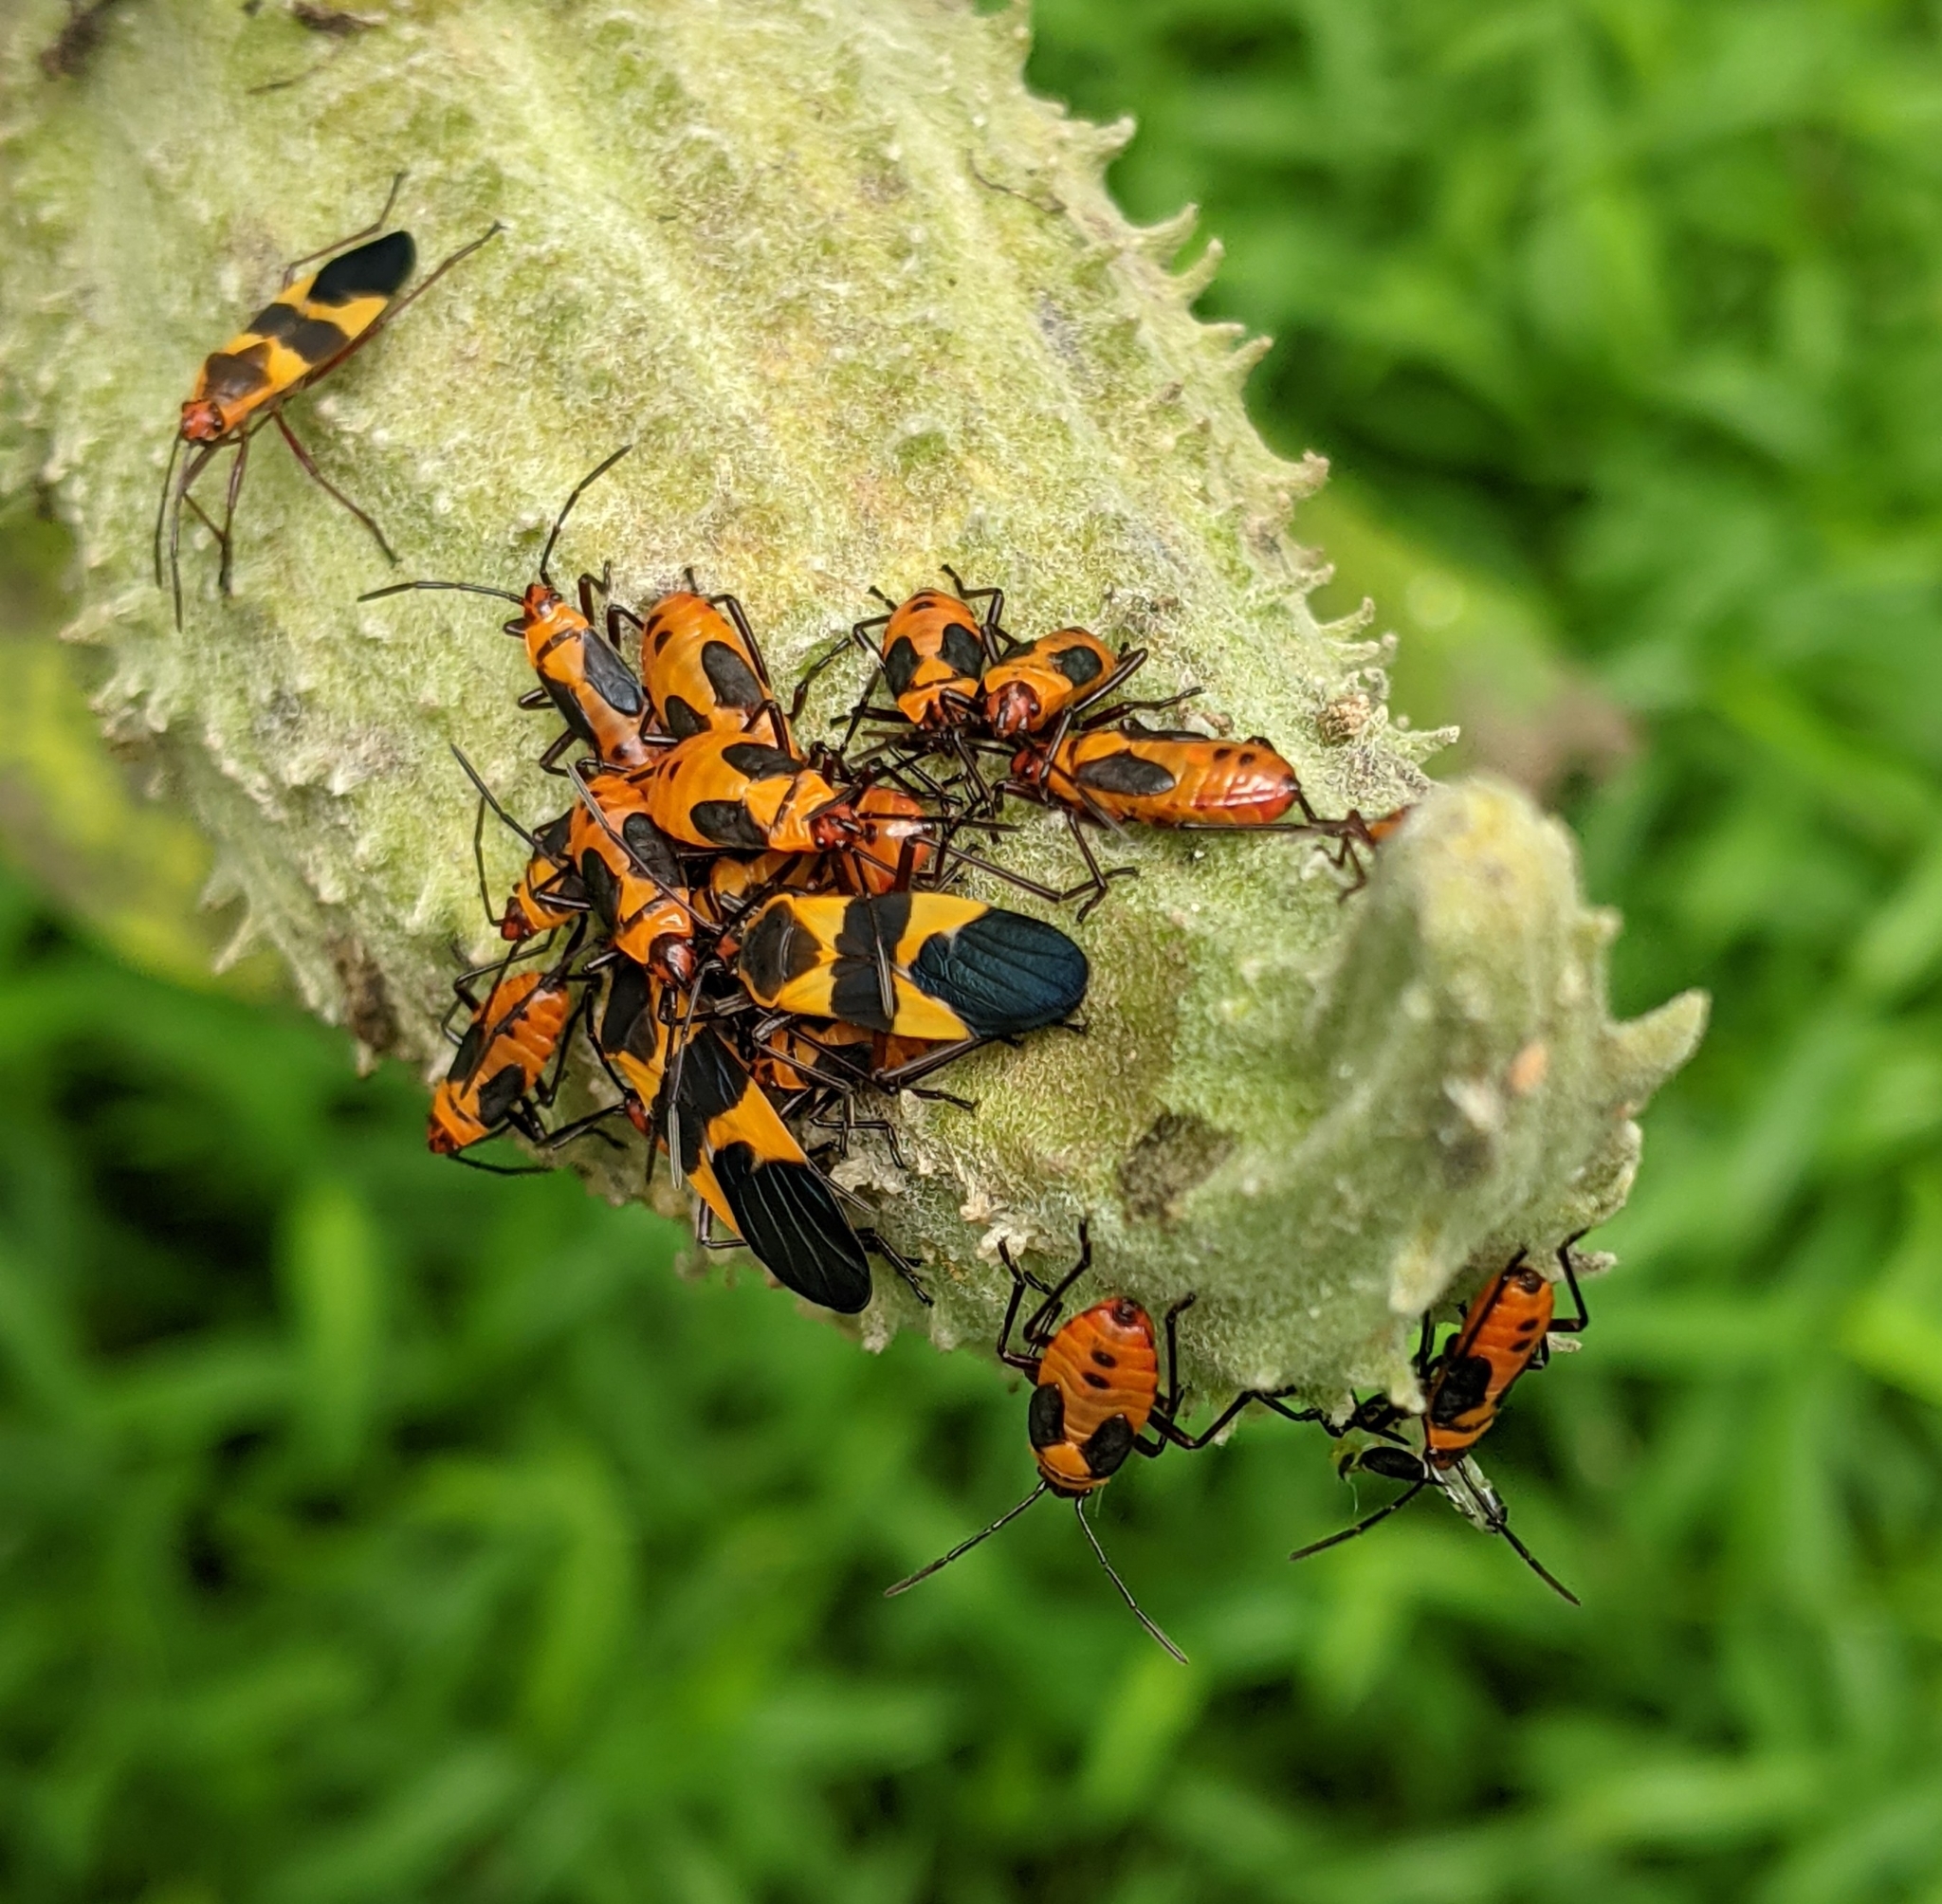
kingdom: Animalia
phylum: Arthropoda
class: Insecta
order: Hemiptera
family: Lygaeidae
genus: Oncopeltus
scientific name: Oncopeltus fasciatus
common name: Large milkweed bug
